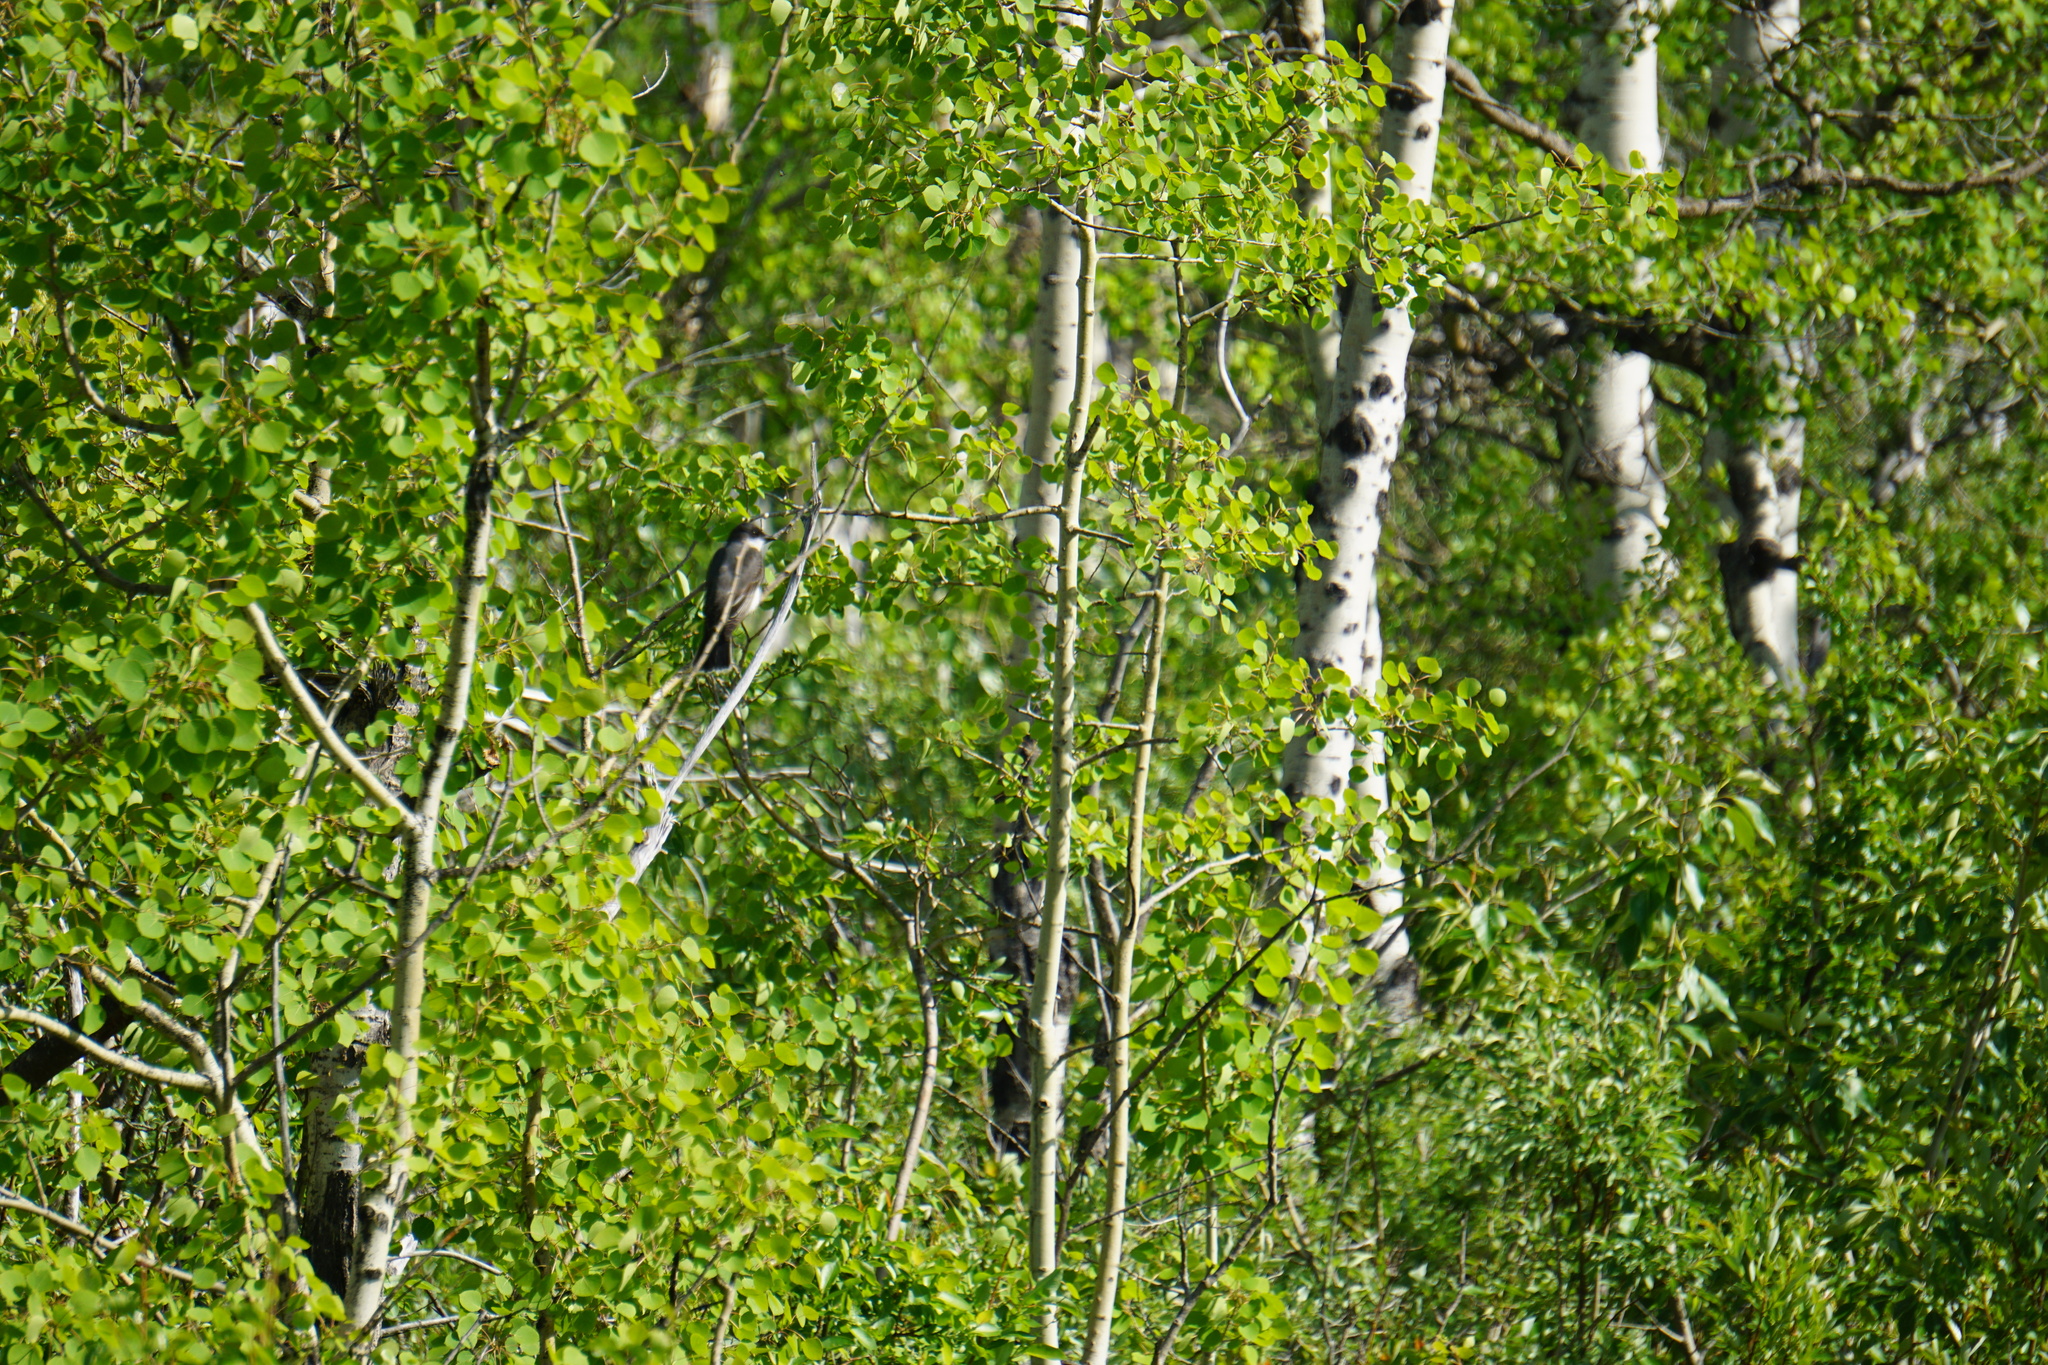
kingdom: Animalia
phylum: Chordata
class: Aves
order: Passeriformes
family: Tyrannidae
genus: Tyrannus
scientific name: Tyrannus tyrannus
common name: Eastern kingbird
